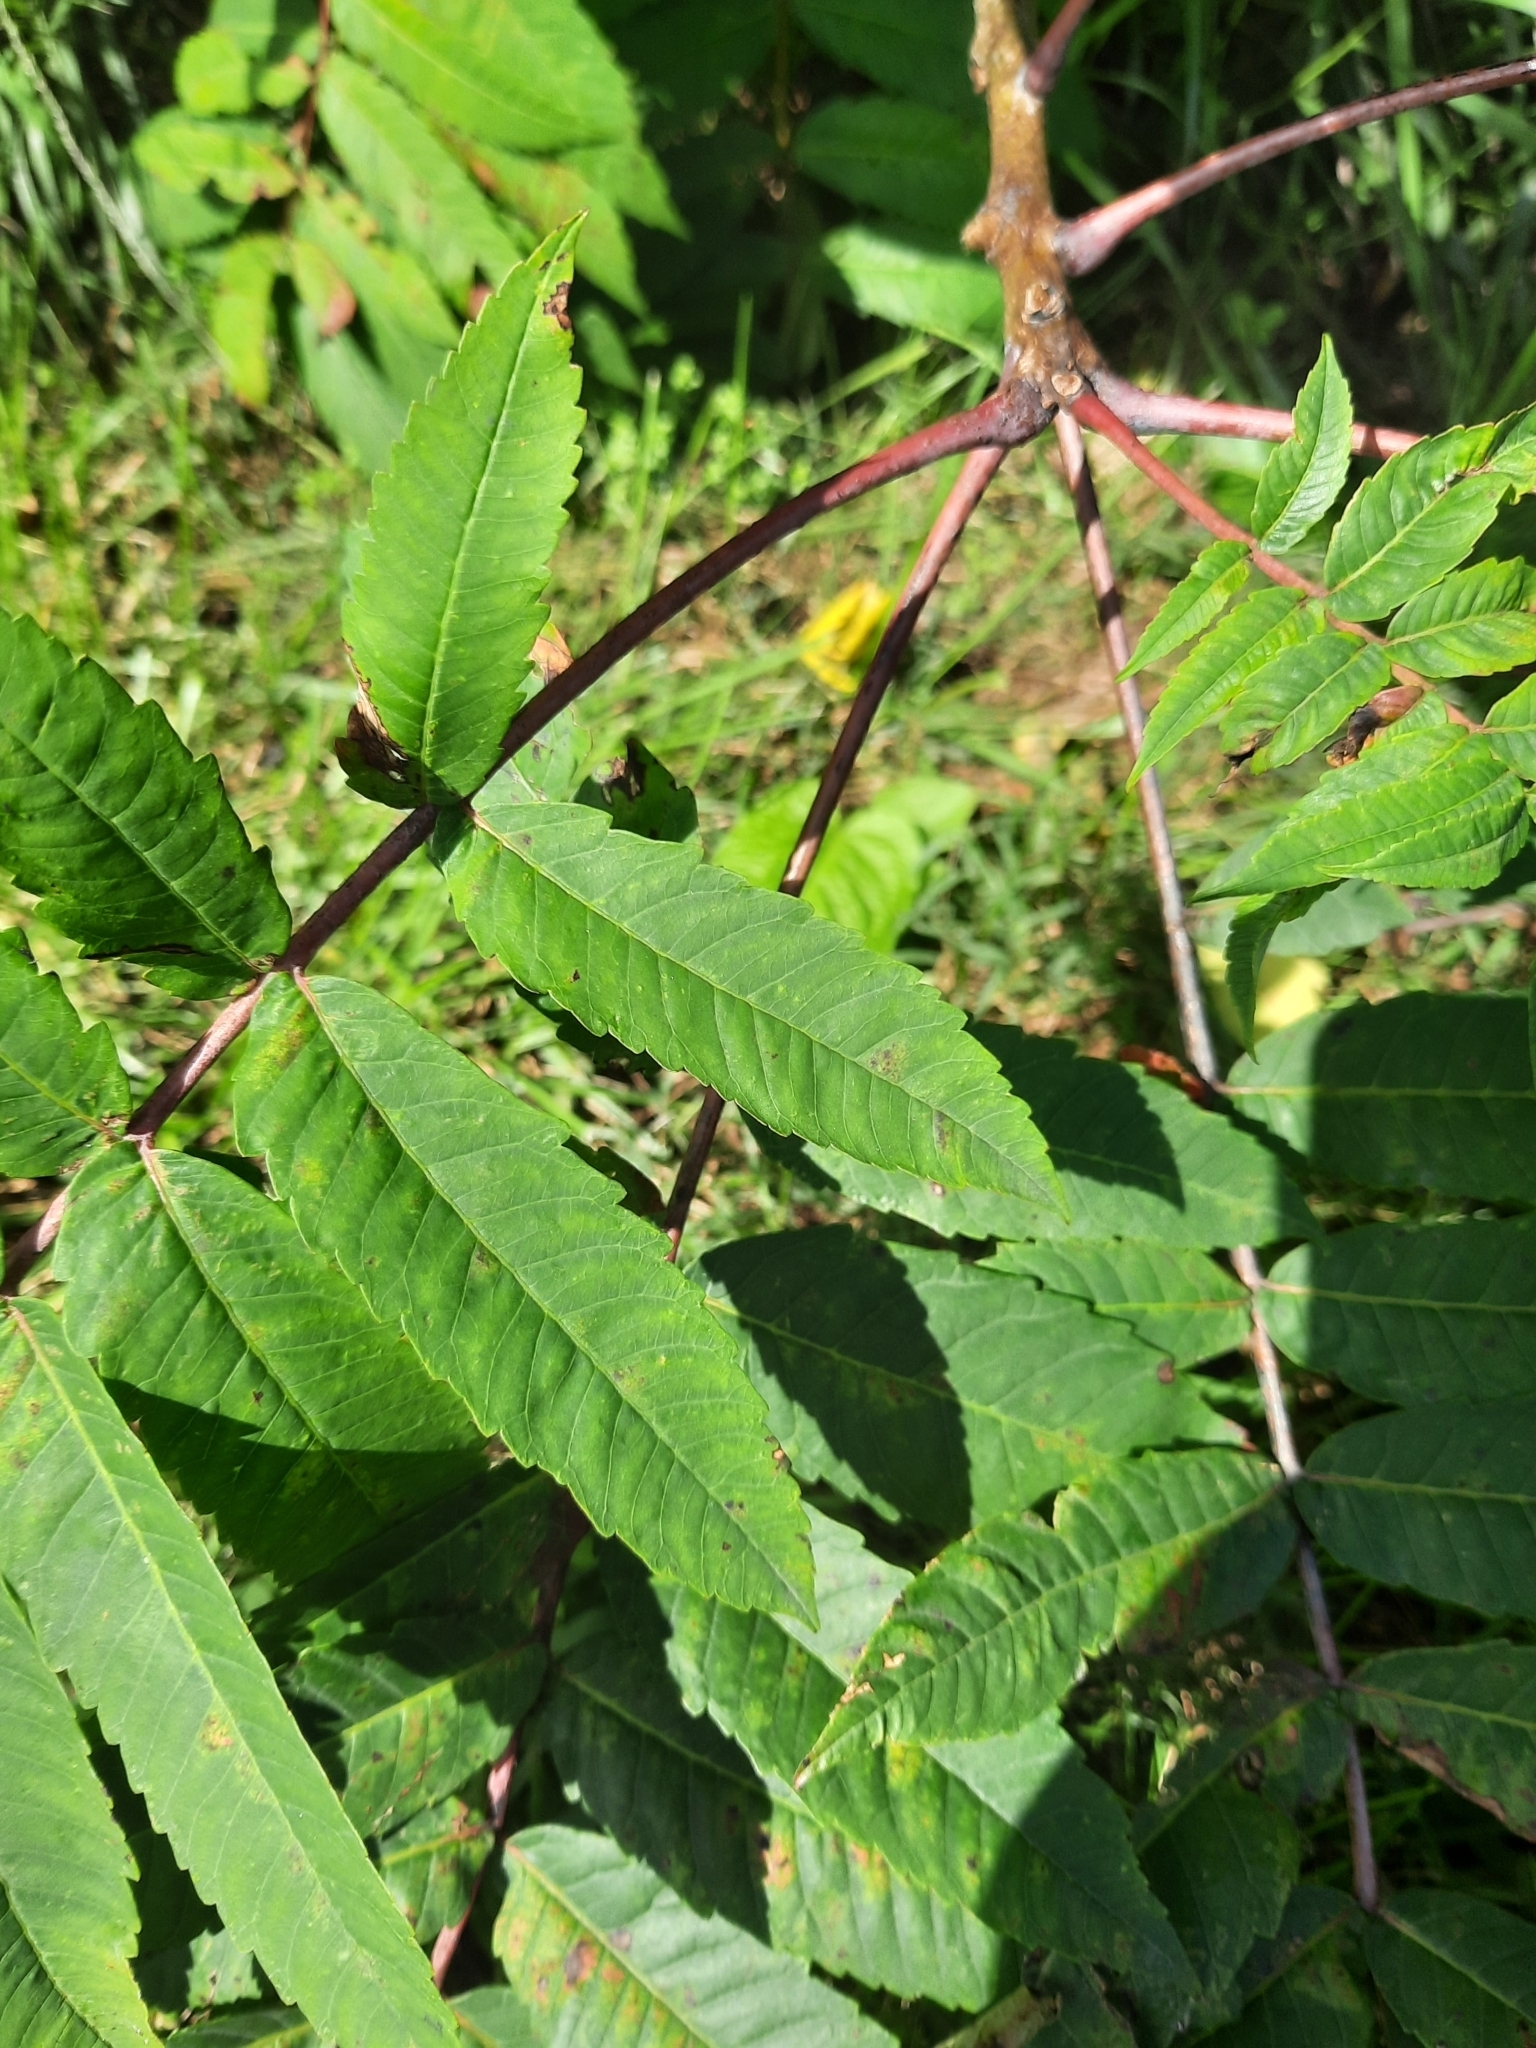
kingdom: Plantae
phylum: Tracheophyta
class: Magnoliopsida
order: Sapindales
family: Anacardiaceae
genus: Rhus
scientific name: Rhus glabra
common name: Scarlet sumac
